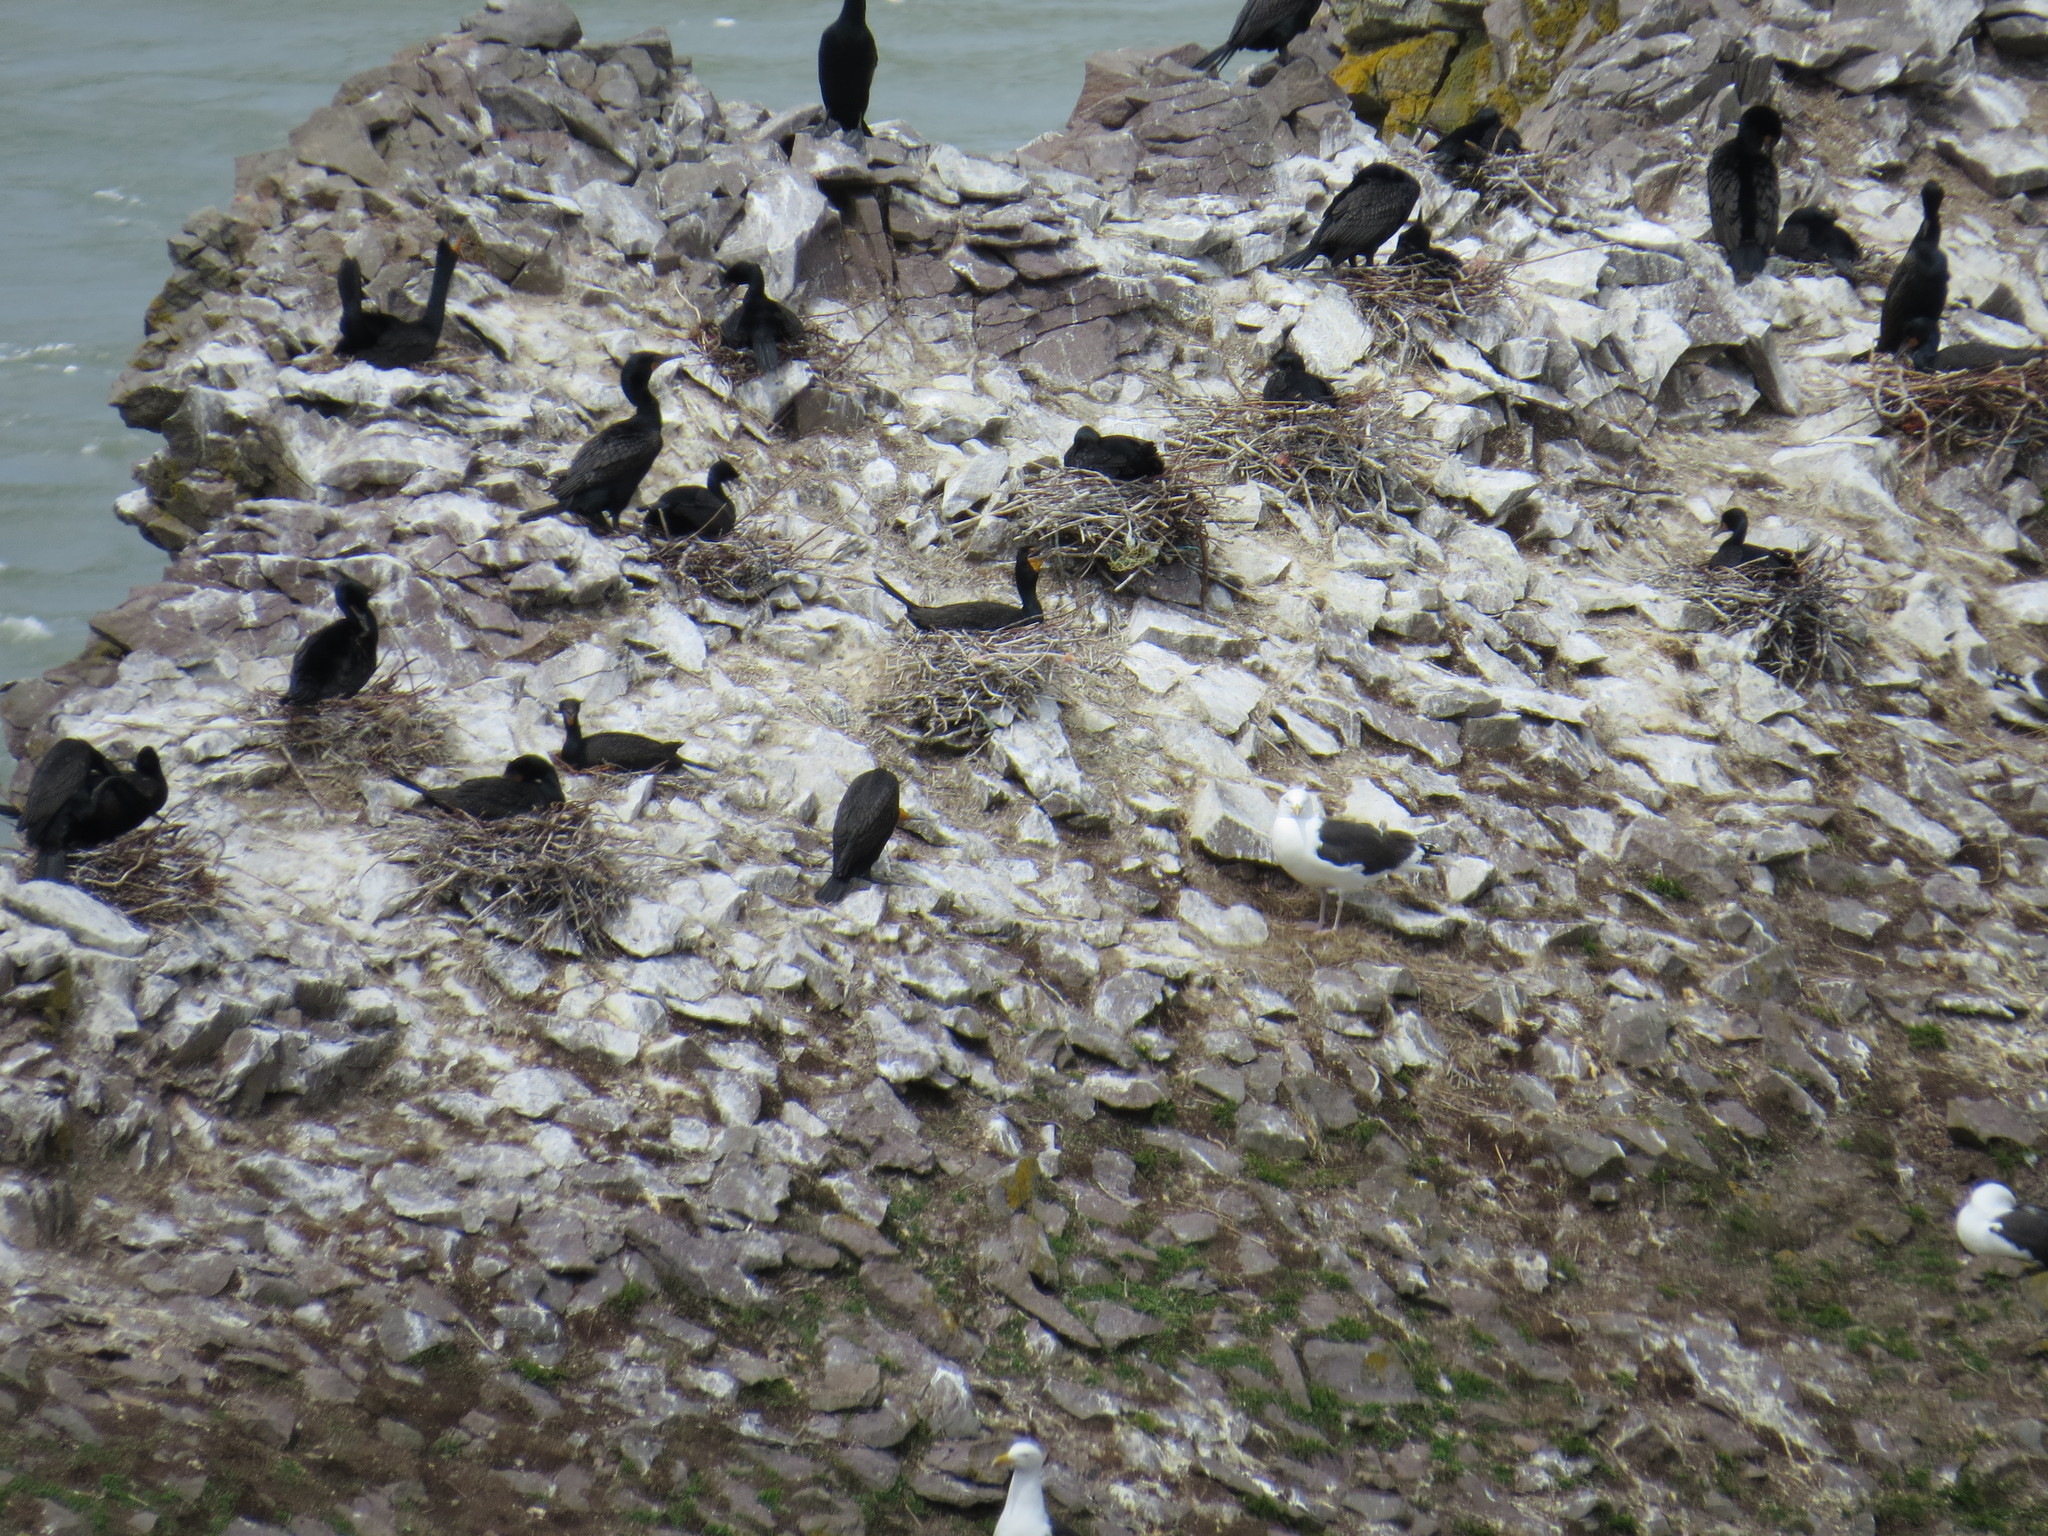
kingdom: Animalia
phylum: Chordata
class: Aves
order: Suliformes
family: Phalacrocoracidae
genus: Phalacrocorax
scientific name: Phalacrocorax auritus
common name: Double-crested cormorant
